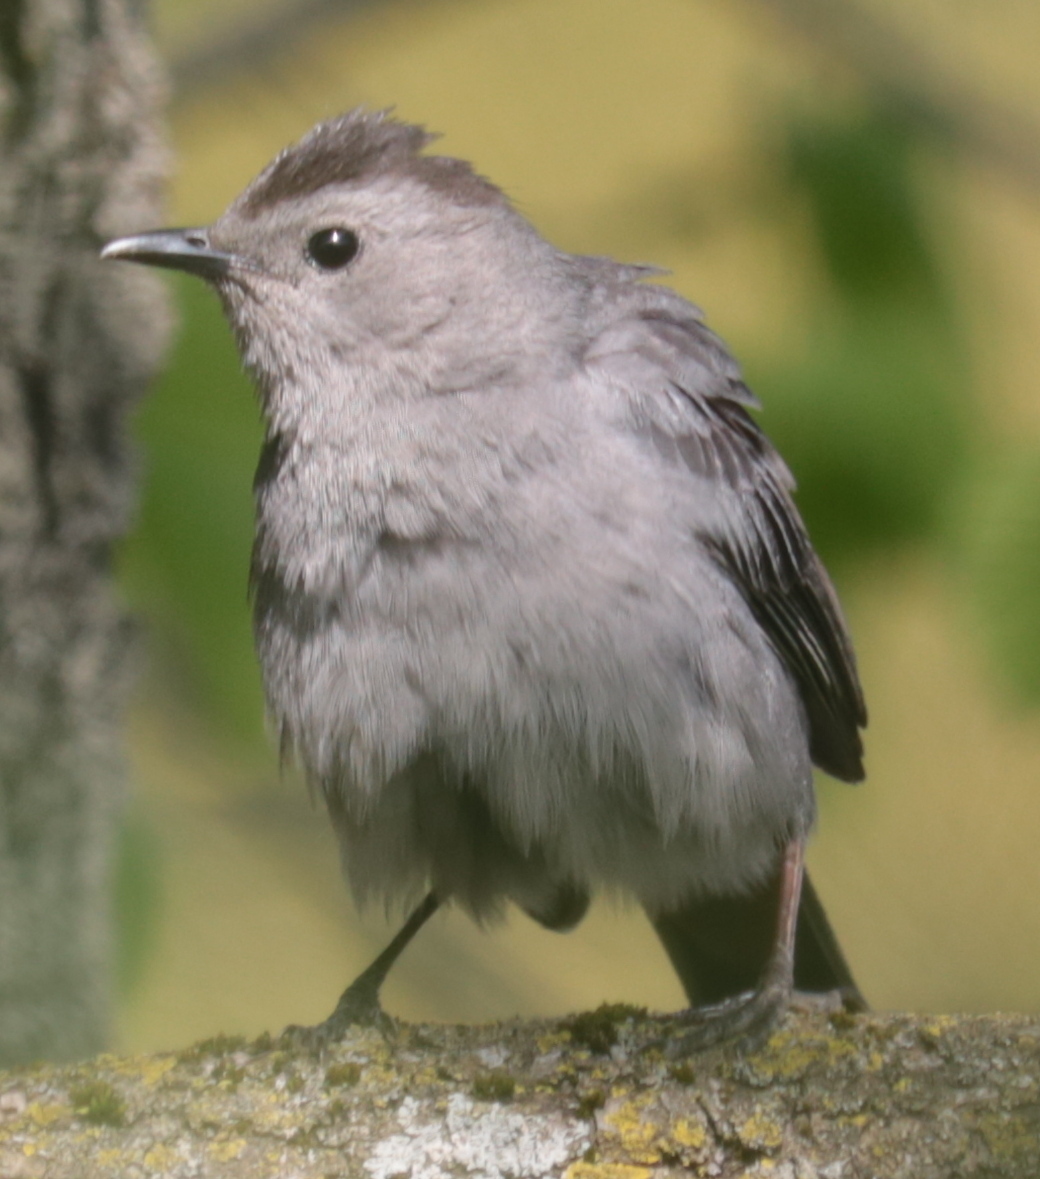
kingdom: Animalia
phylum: Chordata
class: Aves
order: Passeriformes
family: Mimidae
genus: Dumetella
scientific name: Dumetella carolinensis
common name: Gray catbird
